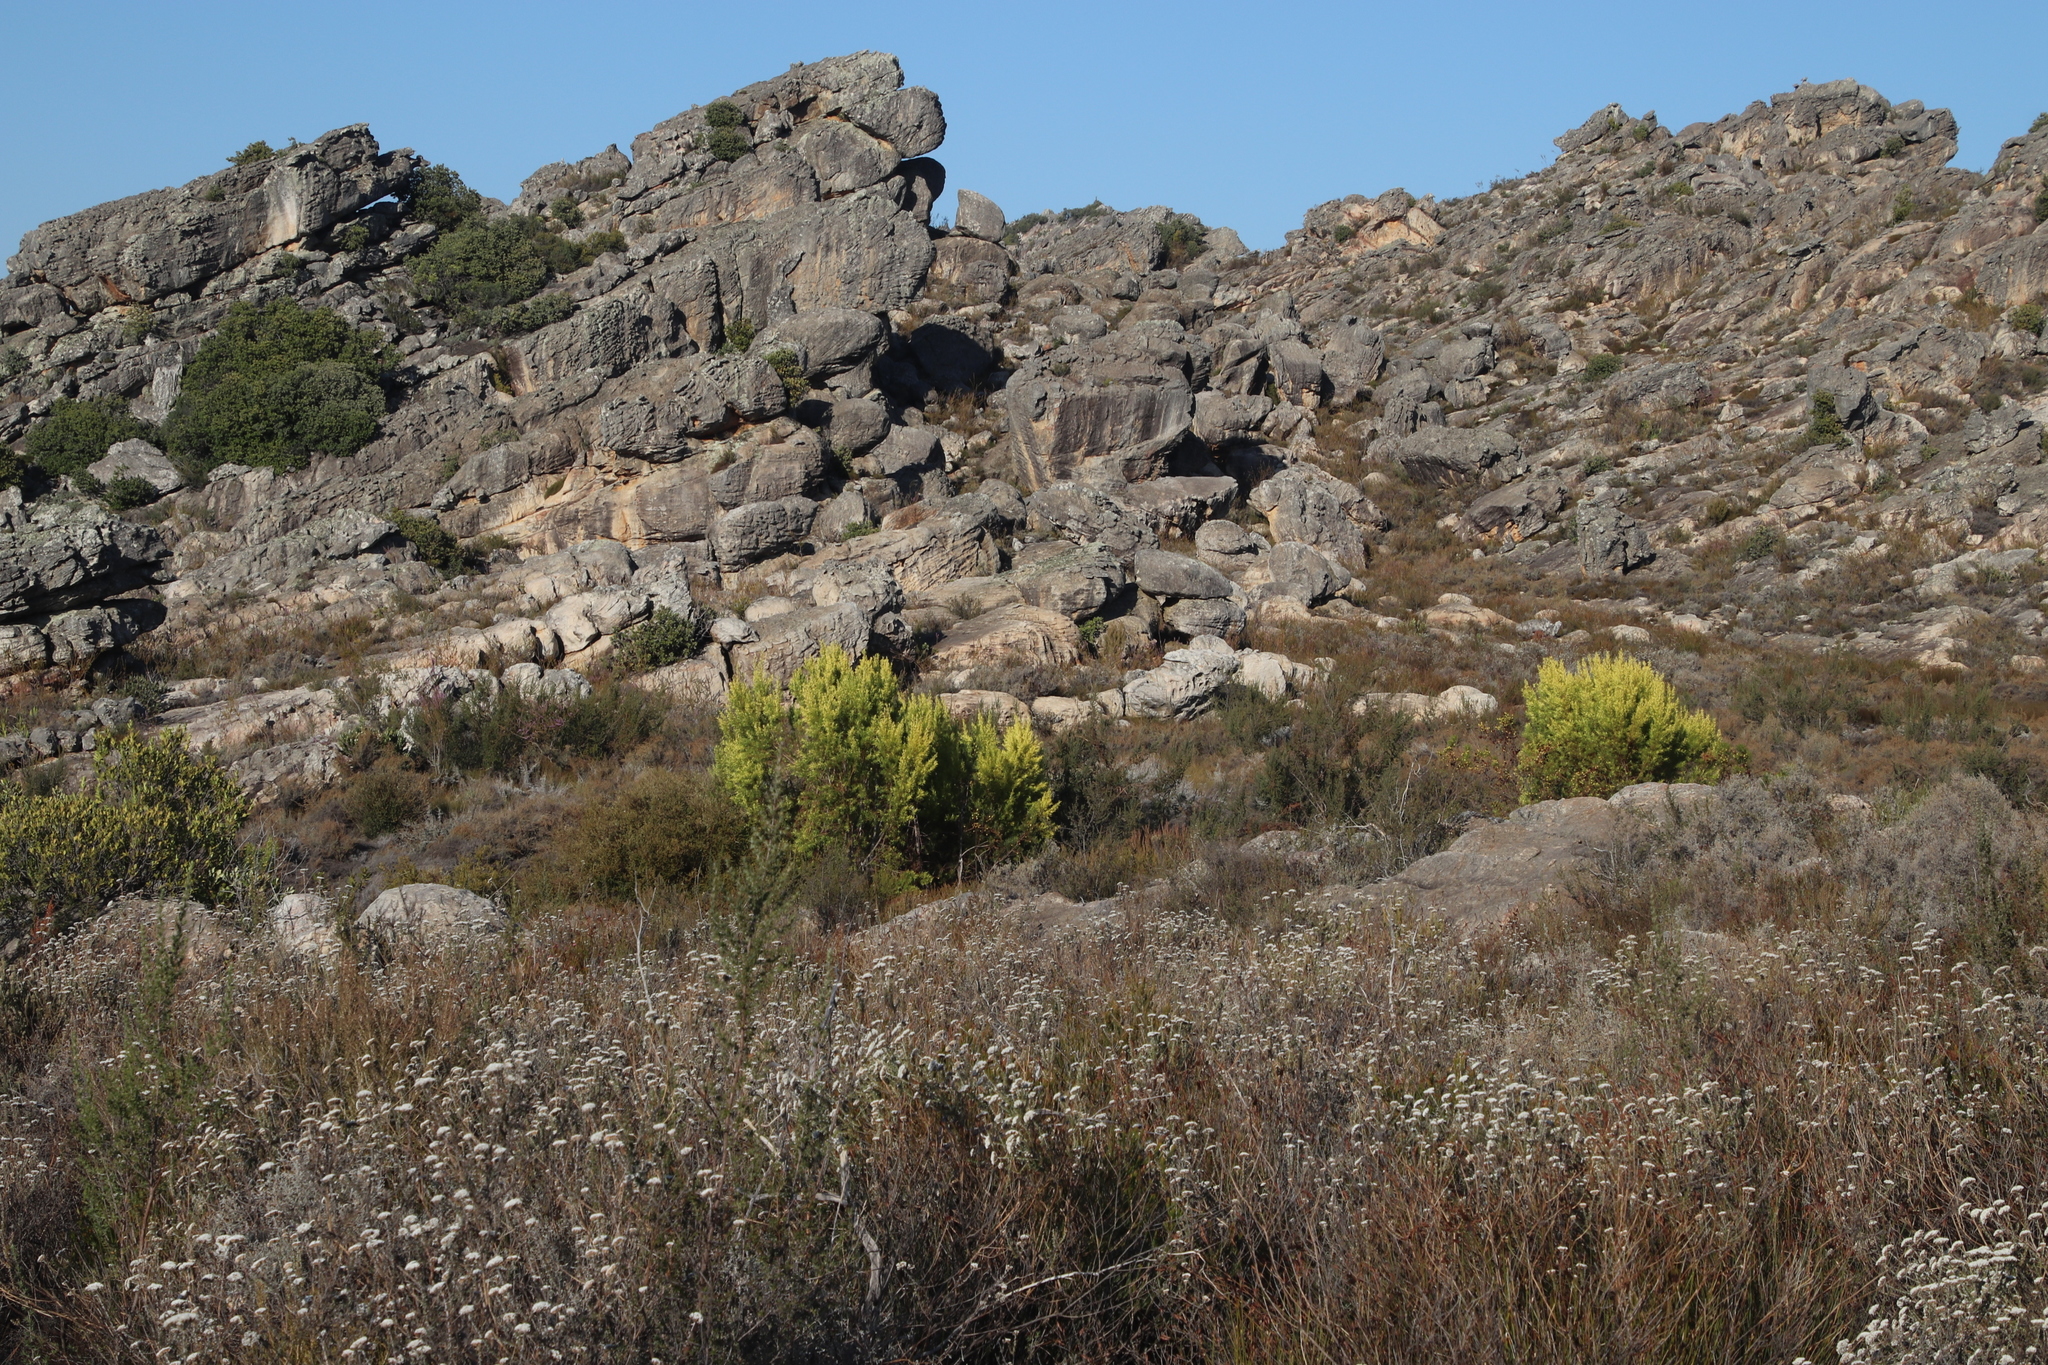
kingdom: Plantae
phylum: Tracheophyta
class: Magnoliopsida
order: Proteales
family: Proteaceae
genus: Leucadendron
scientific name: Leucadendron salicifolium
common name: Common stream conebush
